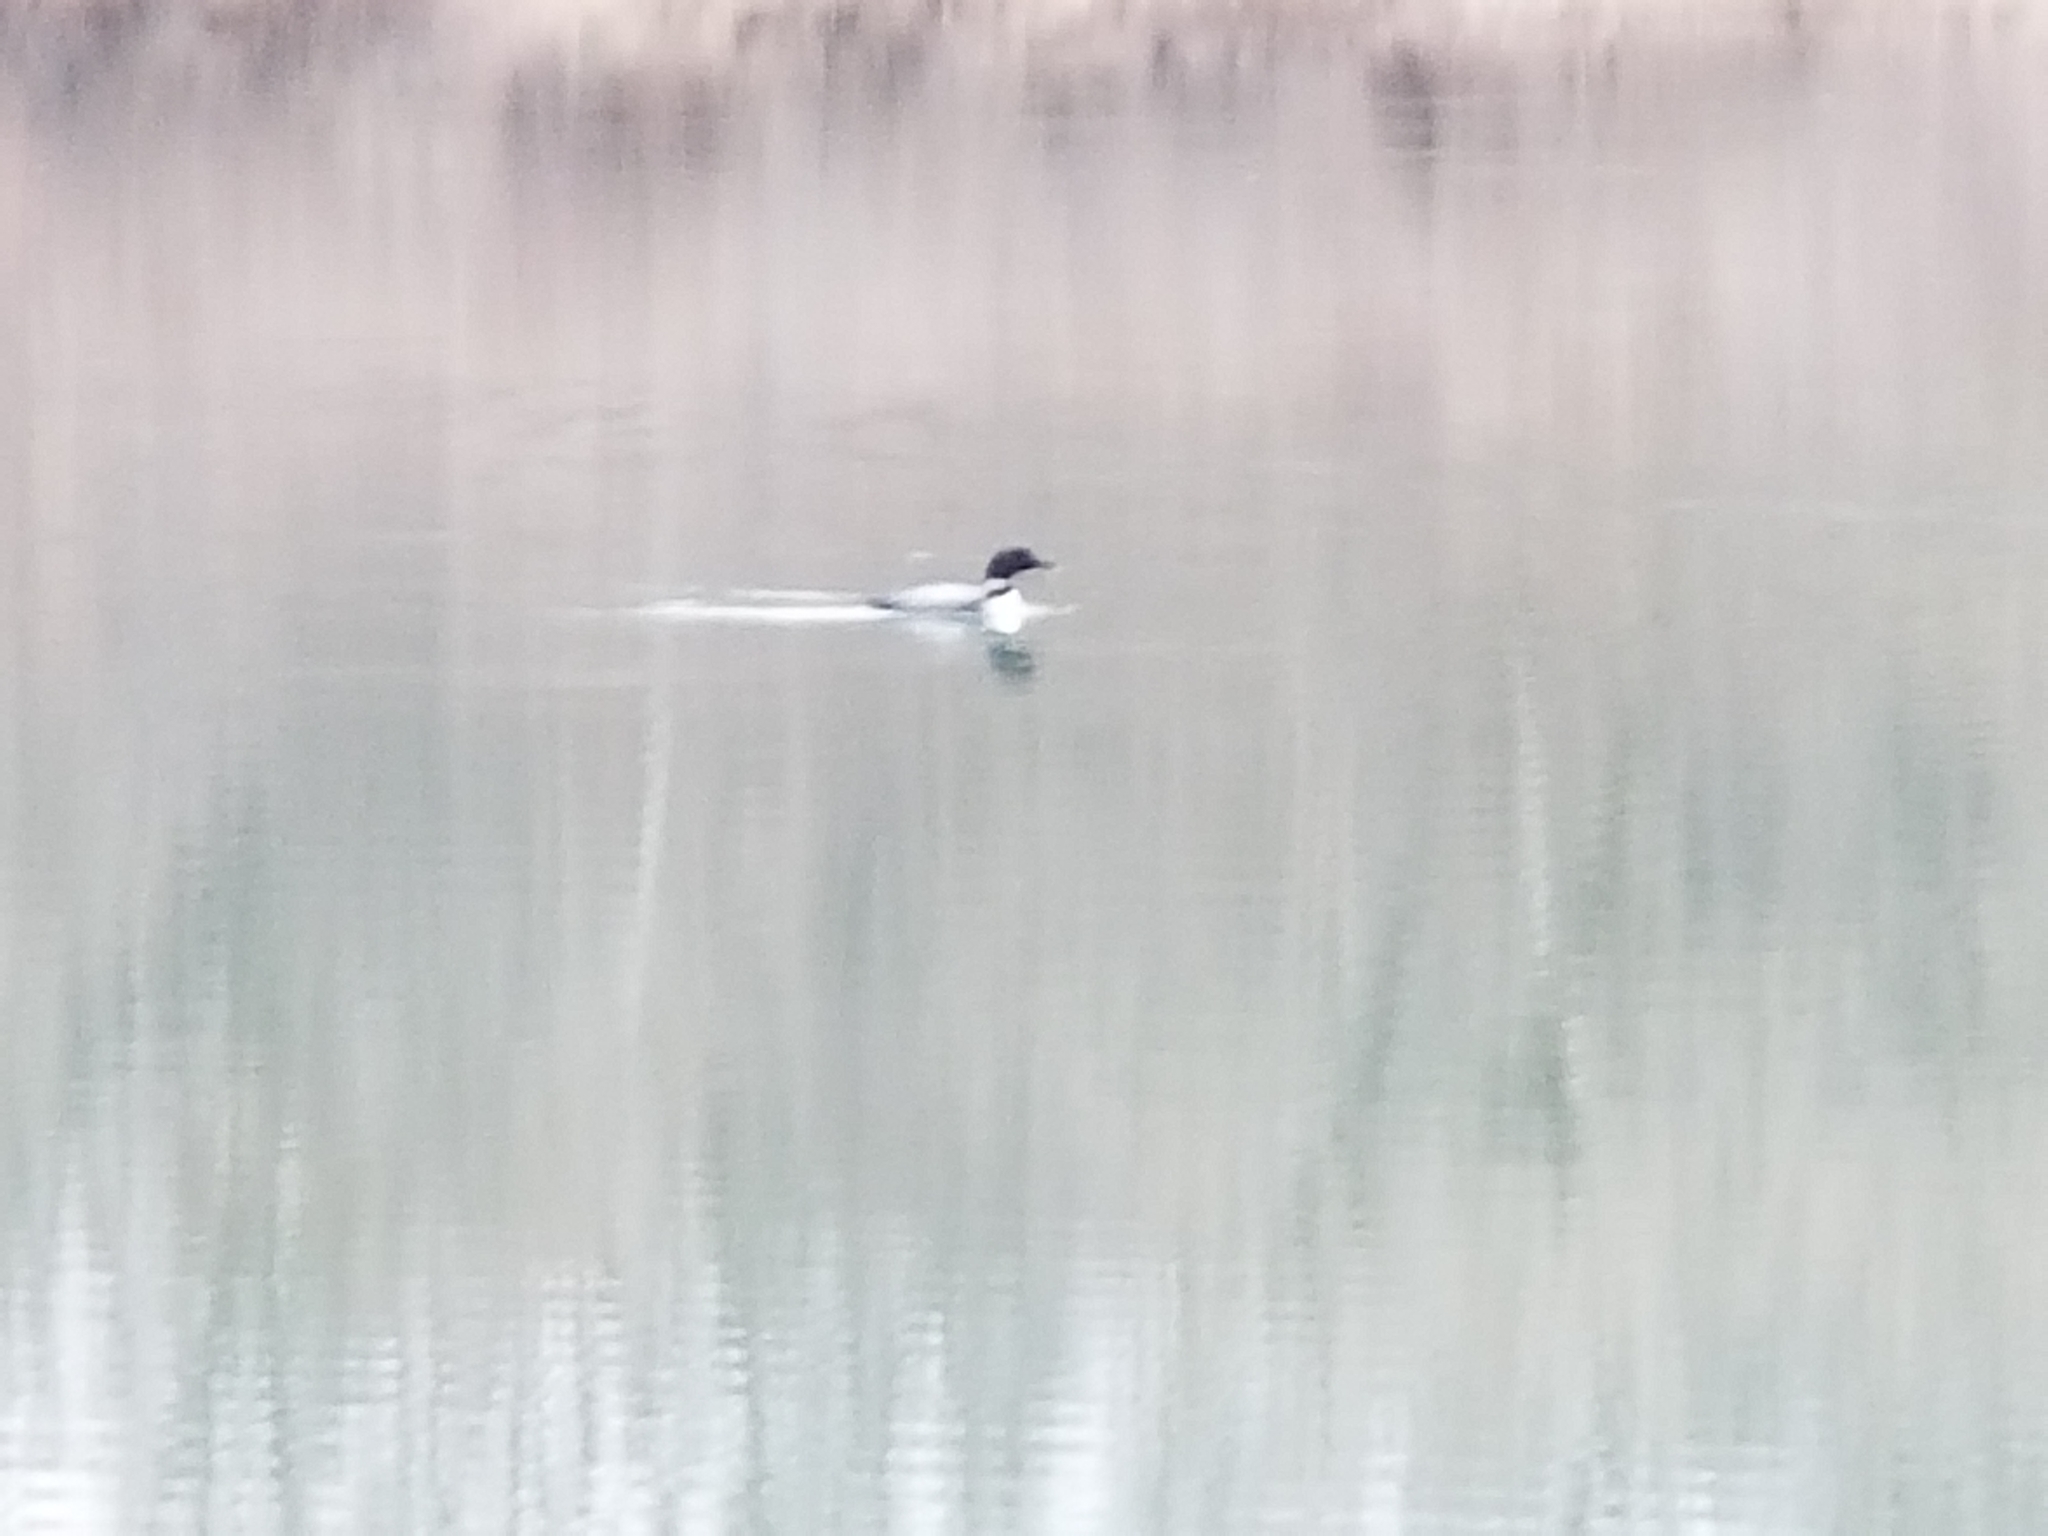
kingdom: Animalia
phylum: Chordata
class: Aves
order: Gaviiformes
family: Gaviidae
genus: Gavia
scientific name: Gavia immer
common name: Common loon
